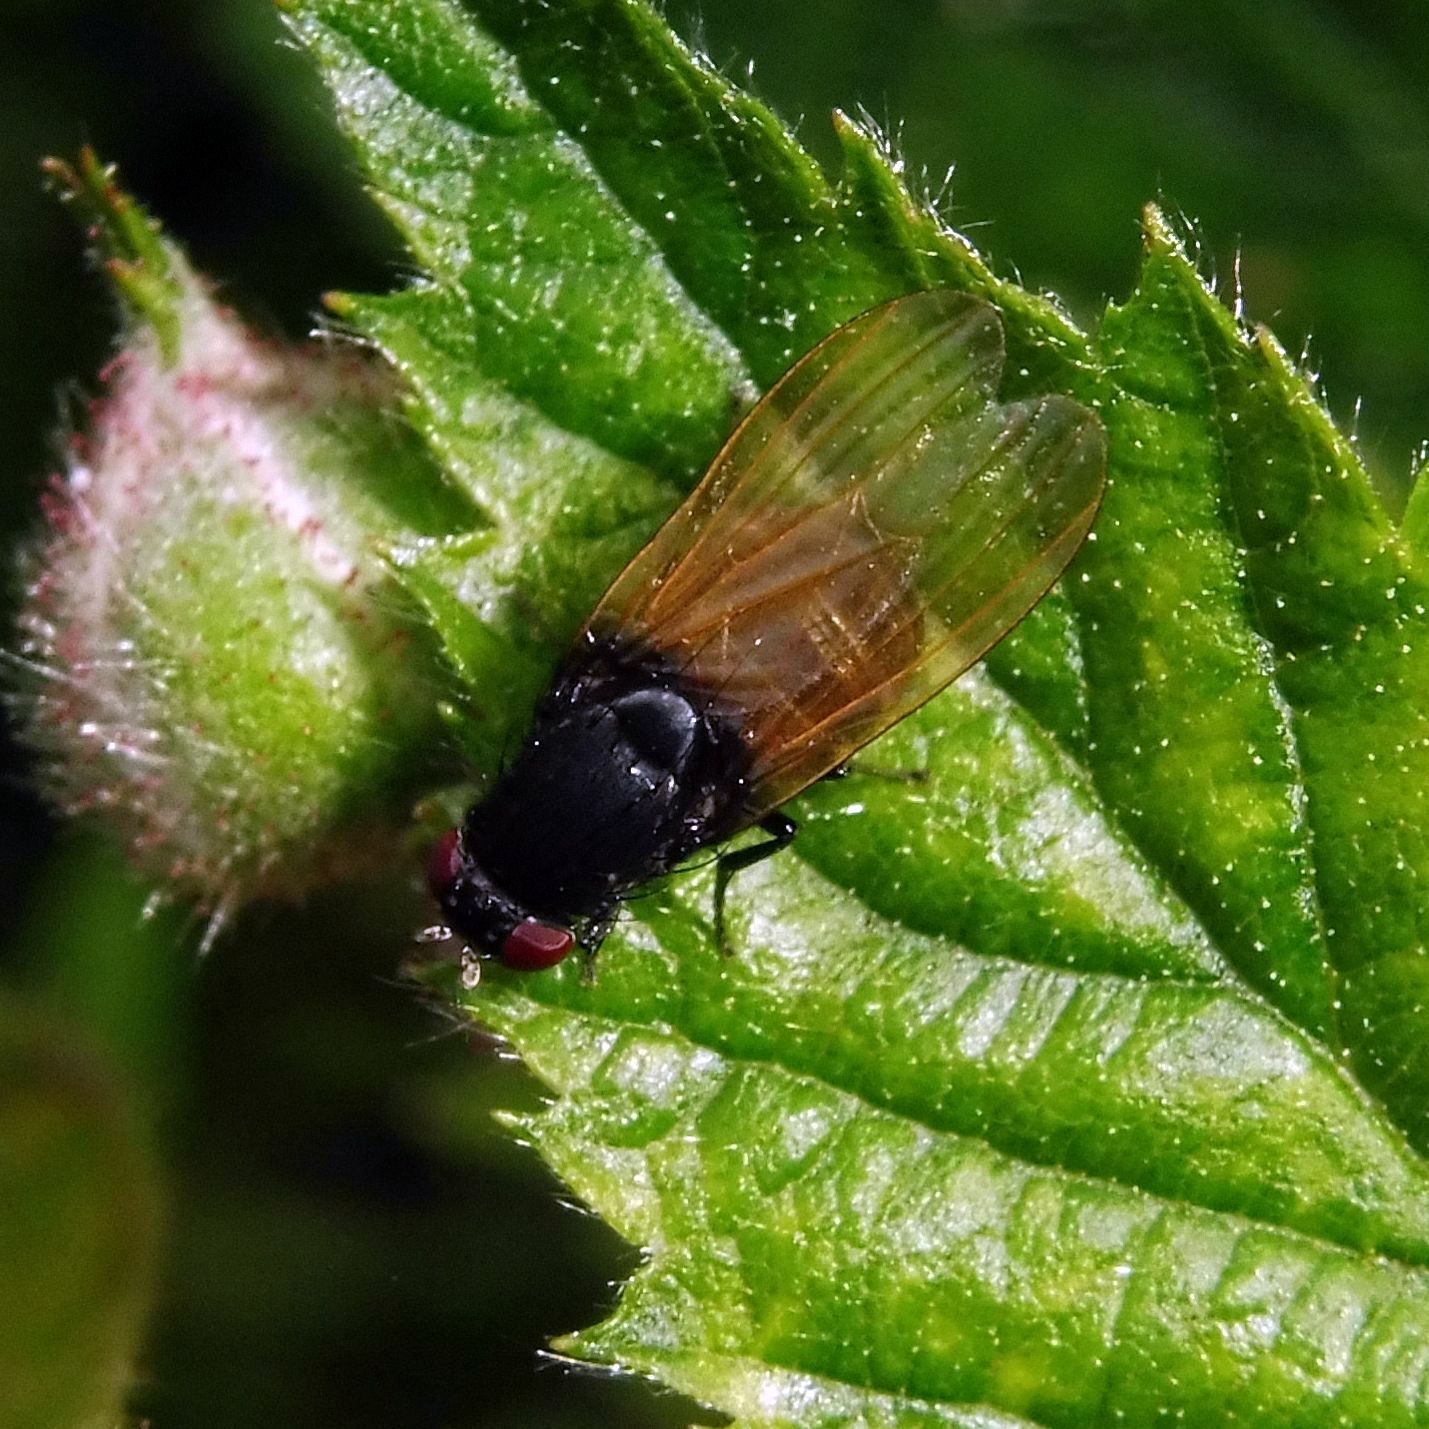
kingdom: Animalia
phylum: Arthropoda
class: Insecta
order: Diptera
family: Lauxaniidae
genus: Minettia
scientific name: Minettia longipennis
